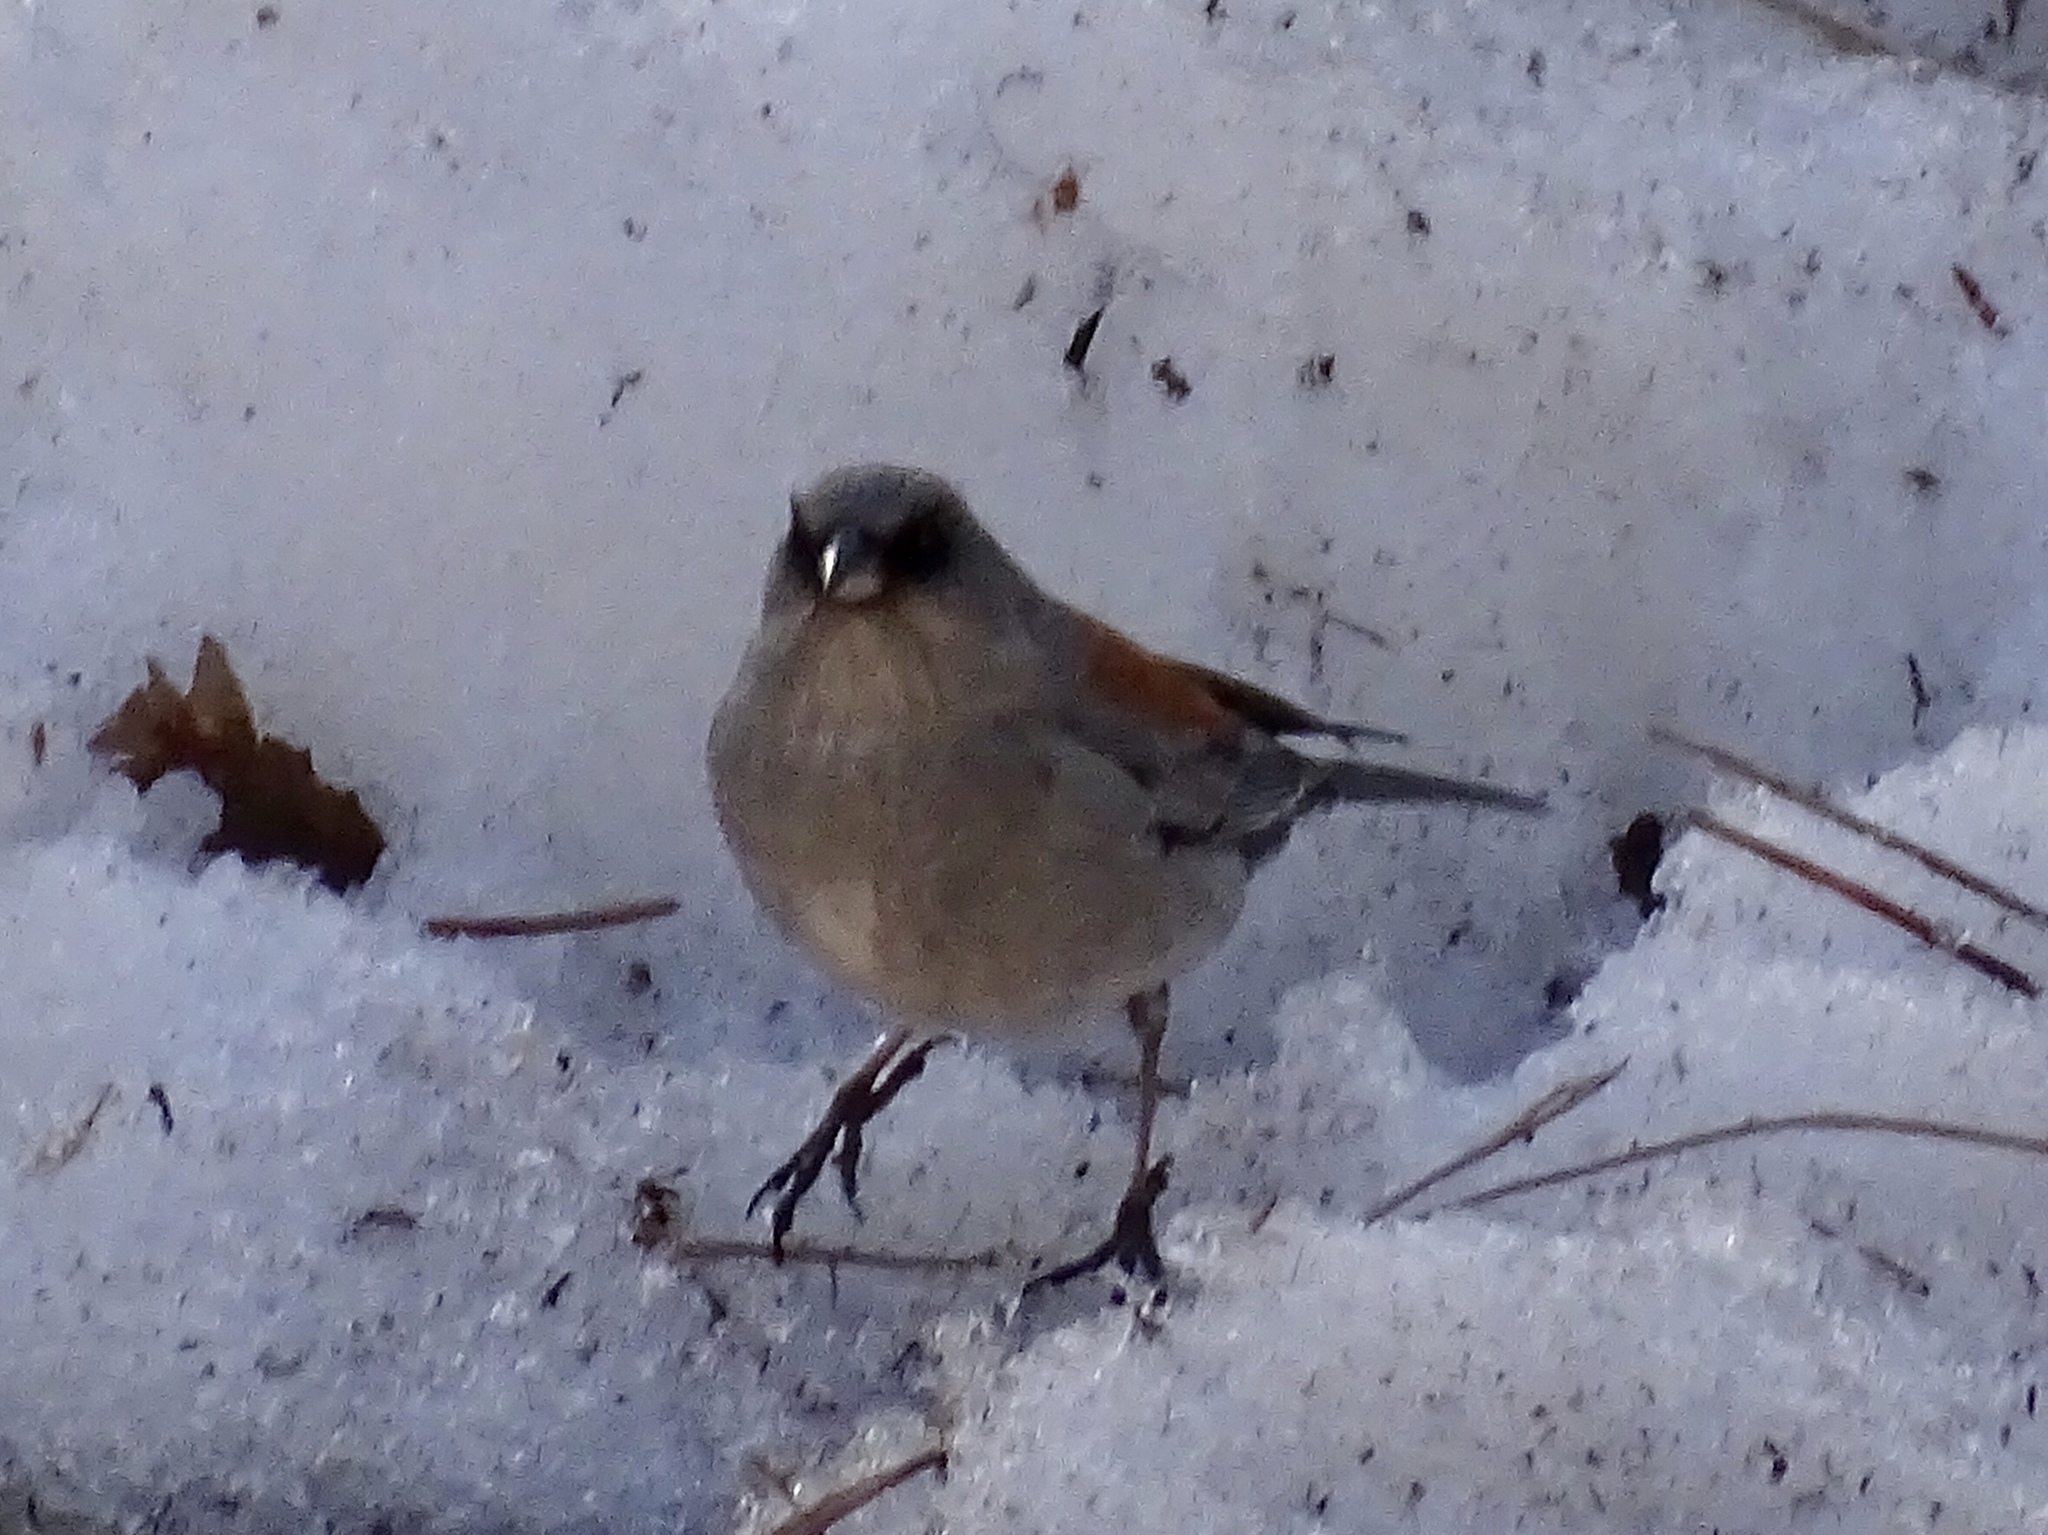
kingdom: Animalia
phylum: Chordata
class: Aves
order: Passeriformes
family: Passerellidae
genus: Junco
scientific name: Junco hyemalis
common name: Dark-eyed junco
